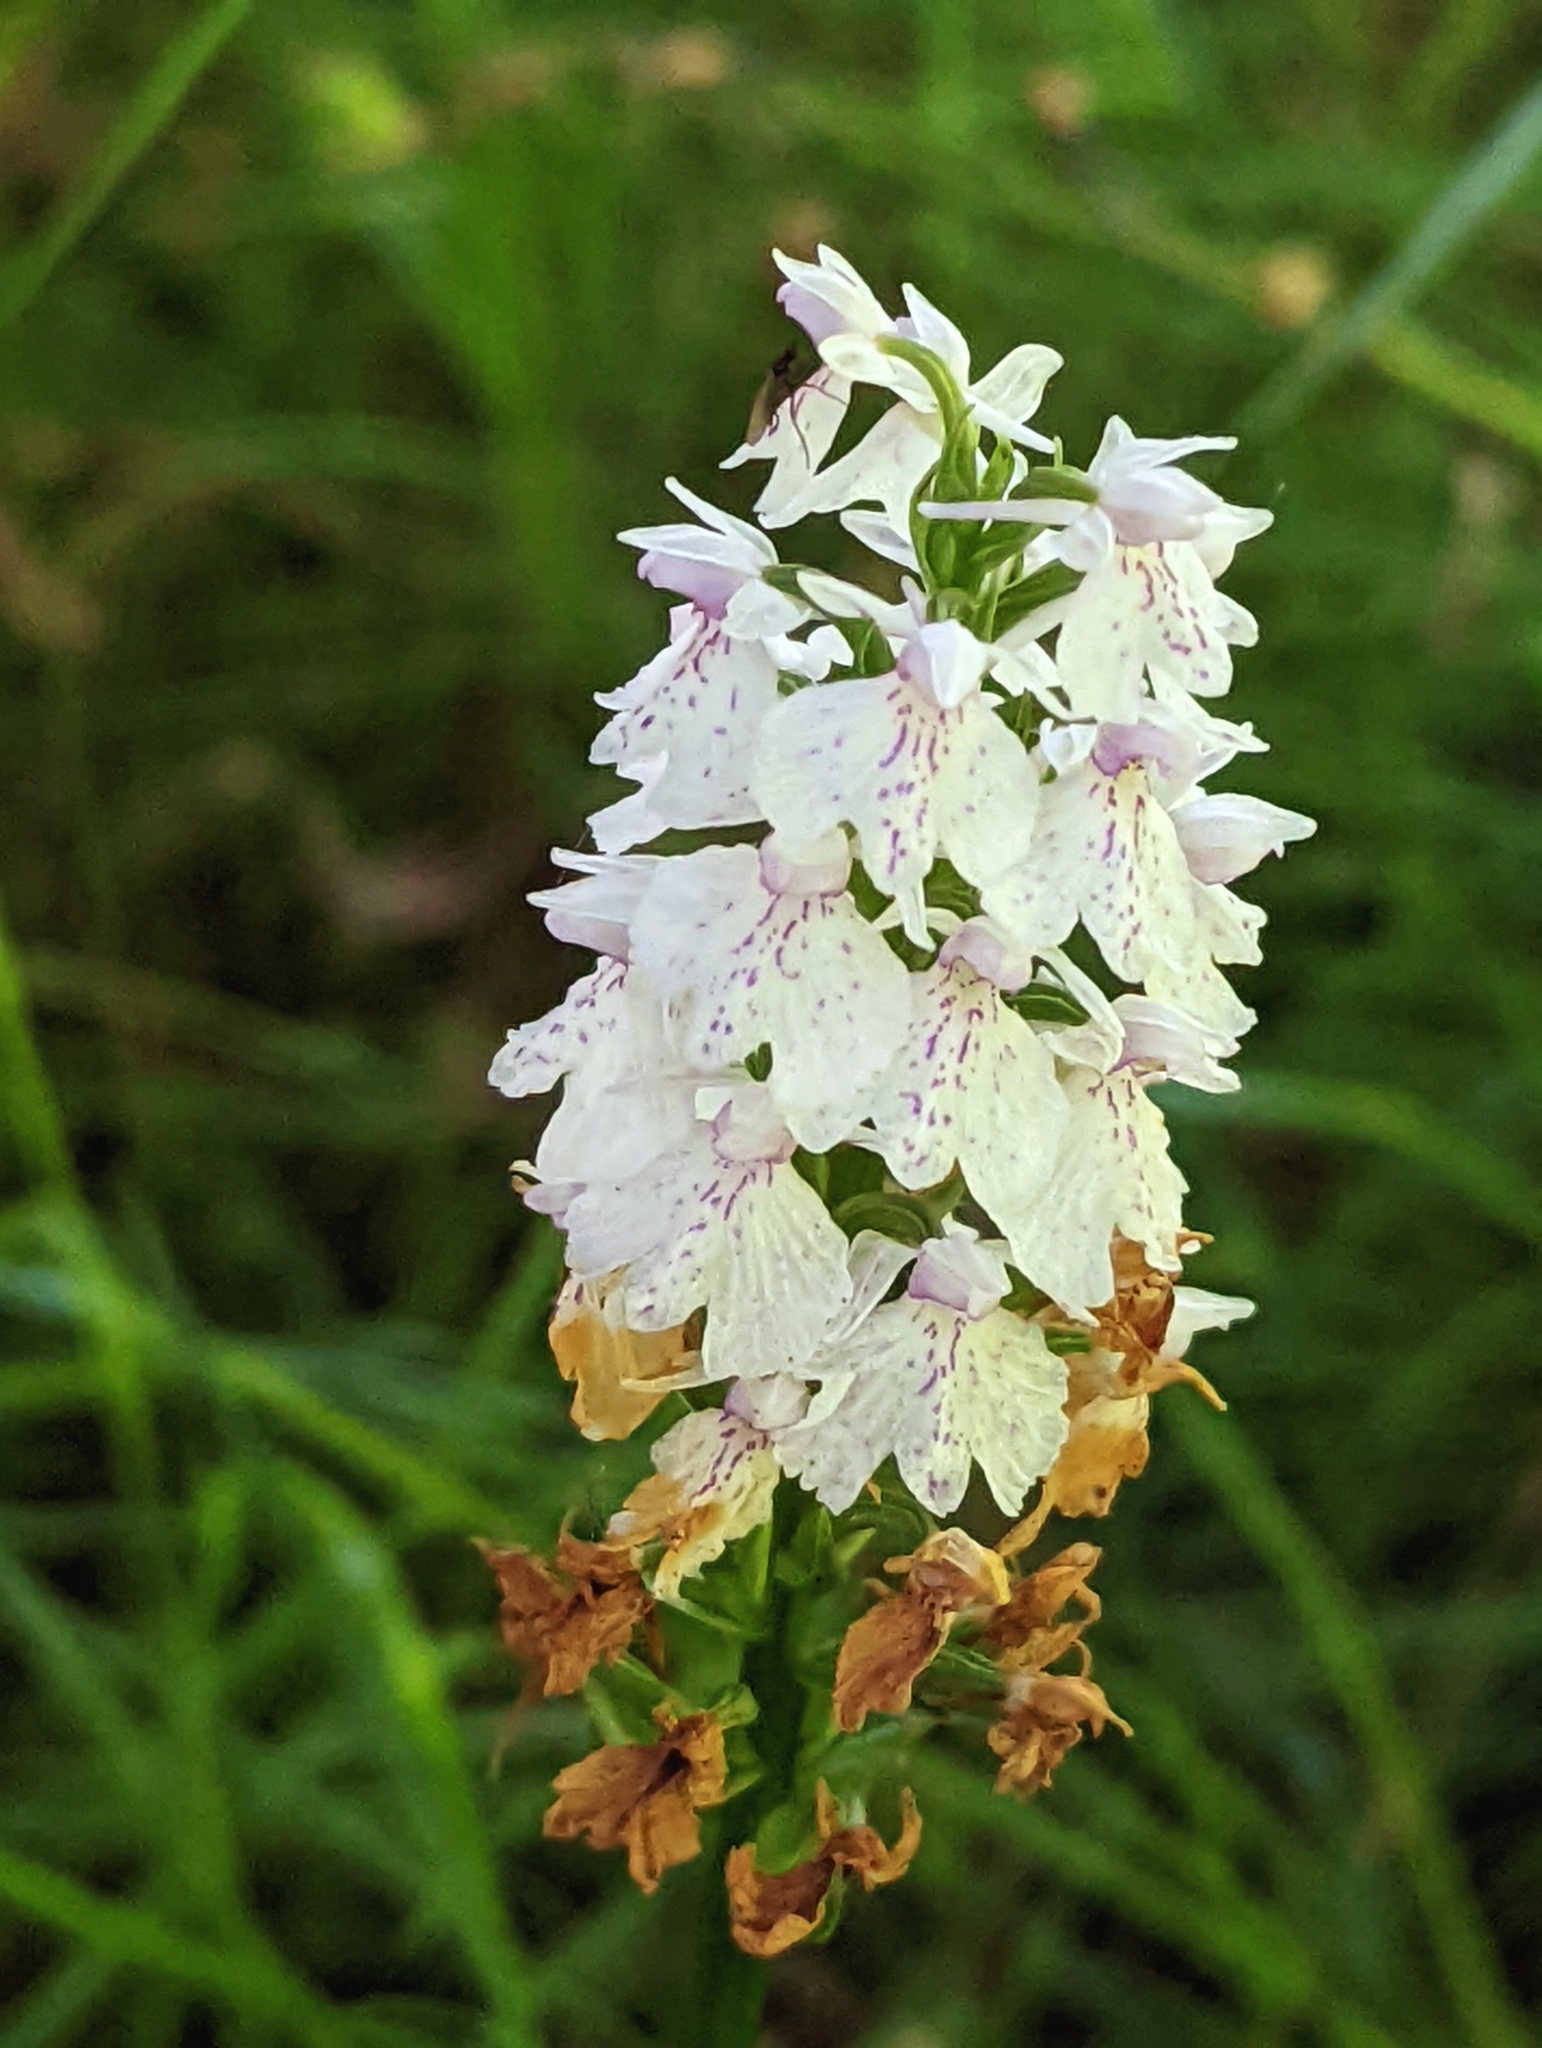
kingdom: Plantae
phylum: Tracheophyta
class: Liliopsida
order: Asparagales
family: Orchidaceae
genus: Dactylorhiza
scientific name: Dactylorhiza maculata
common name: Heath spotted-orchid
